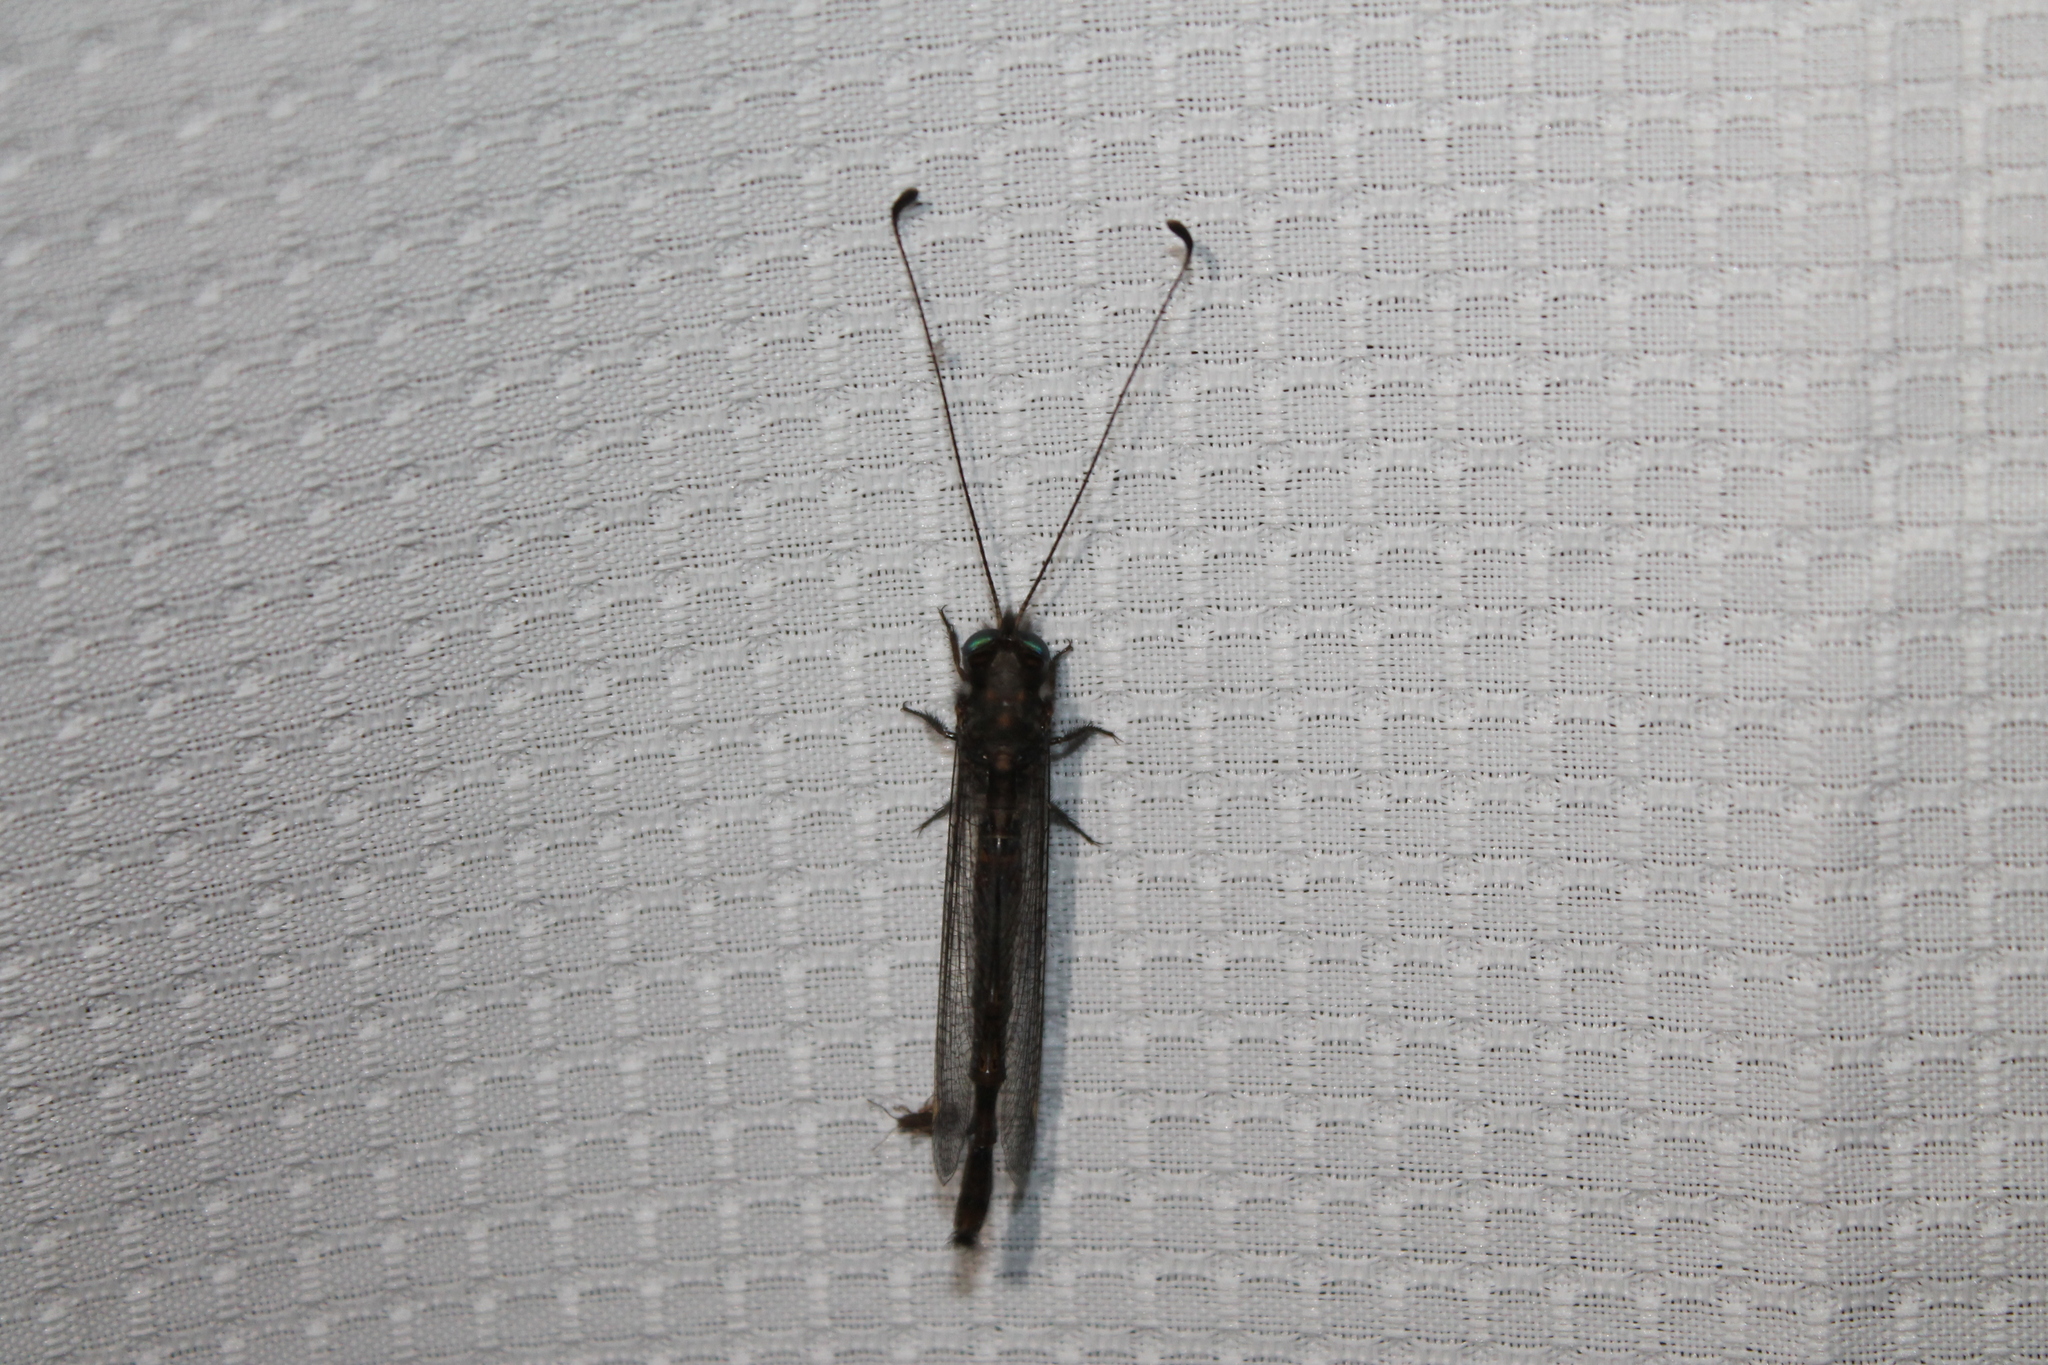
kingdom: Animalia
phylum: Arthropoda
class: Insecta
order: Neuroptera
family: Ascalaphidae
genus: Ululodes
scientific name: Ululodes quadripunctatus
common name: Four-spotted owlfly
